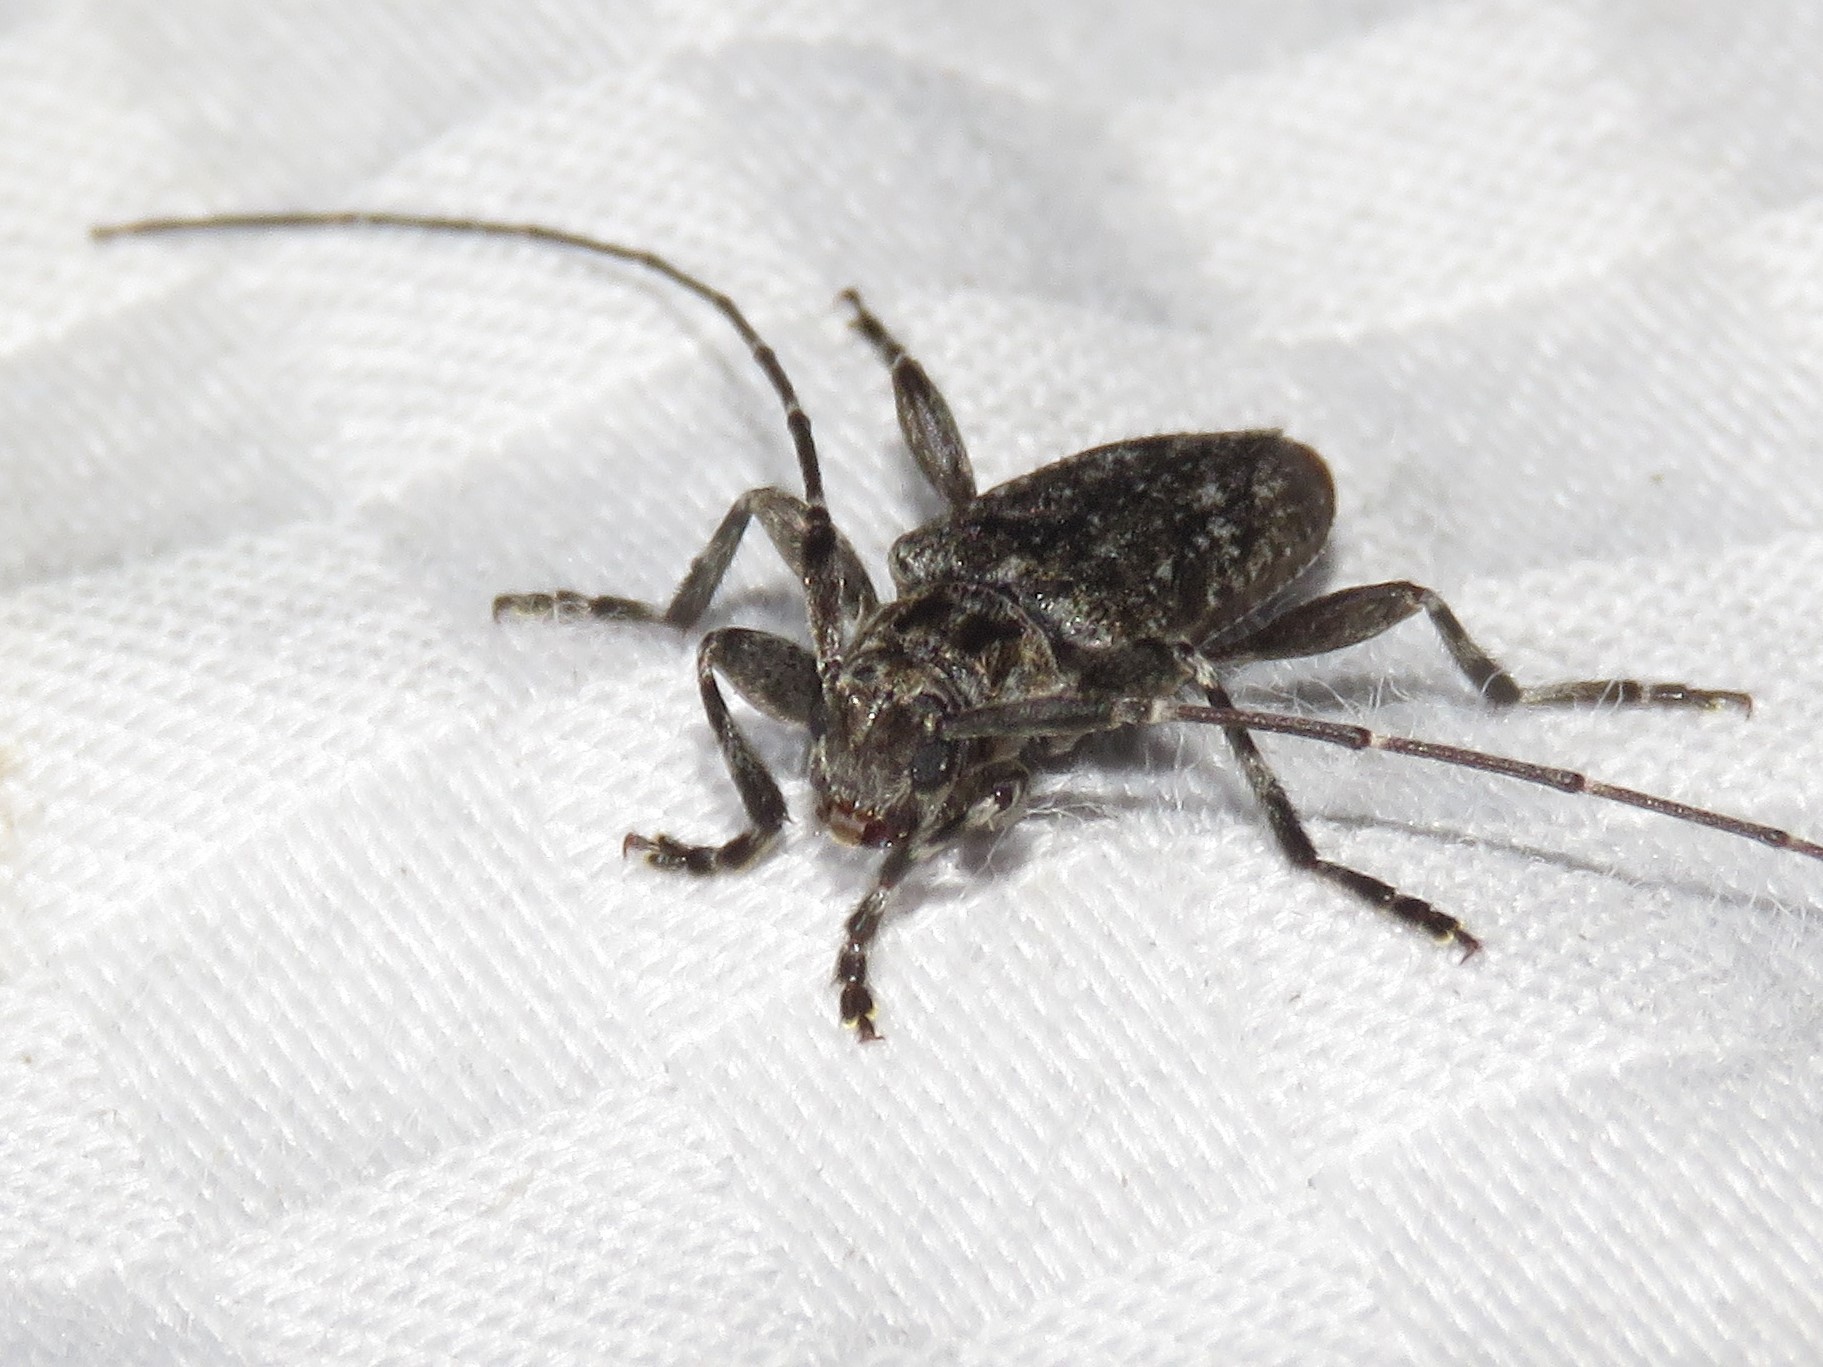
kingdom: Animalia
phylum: Arthropoda
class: Insecta
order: Coleoptera
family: Cerambycidae
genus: Eutrichillus
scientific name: Eutrichillus biguttatus
